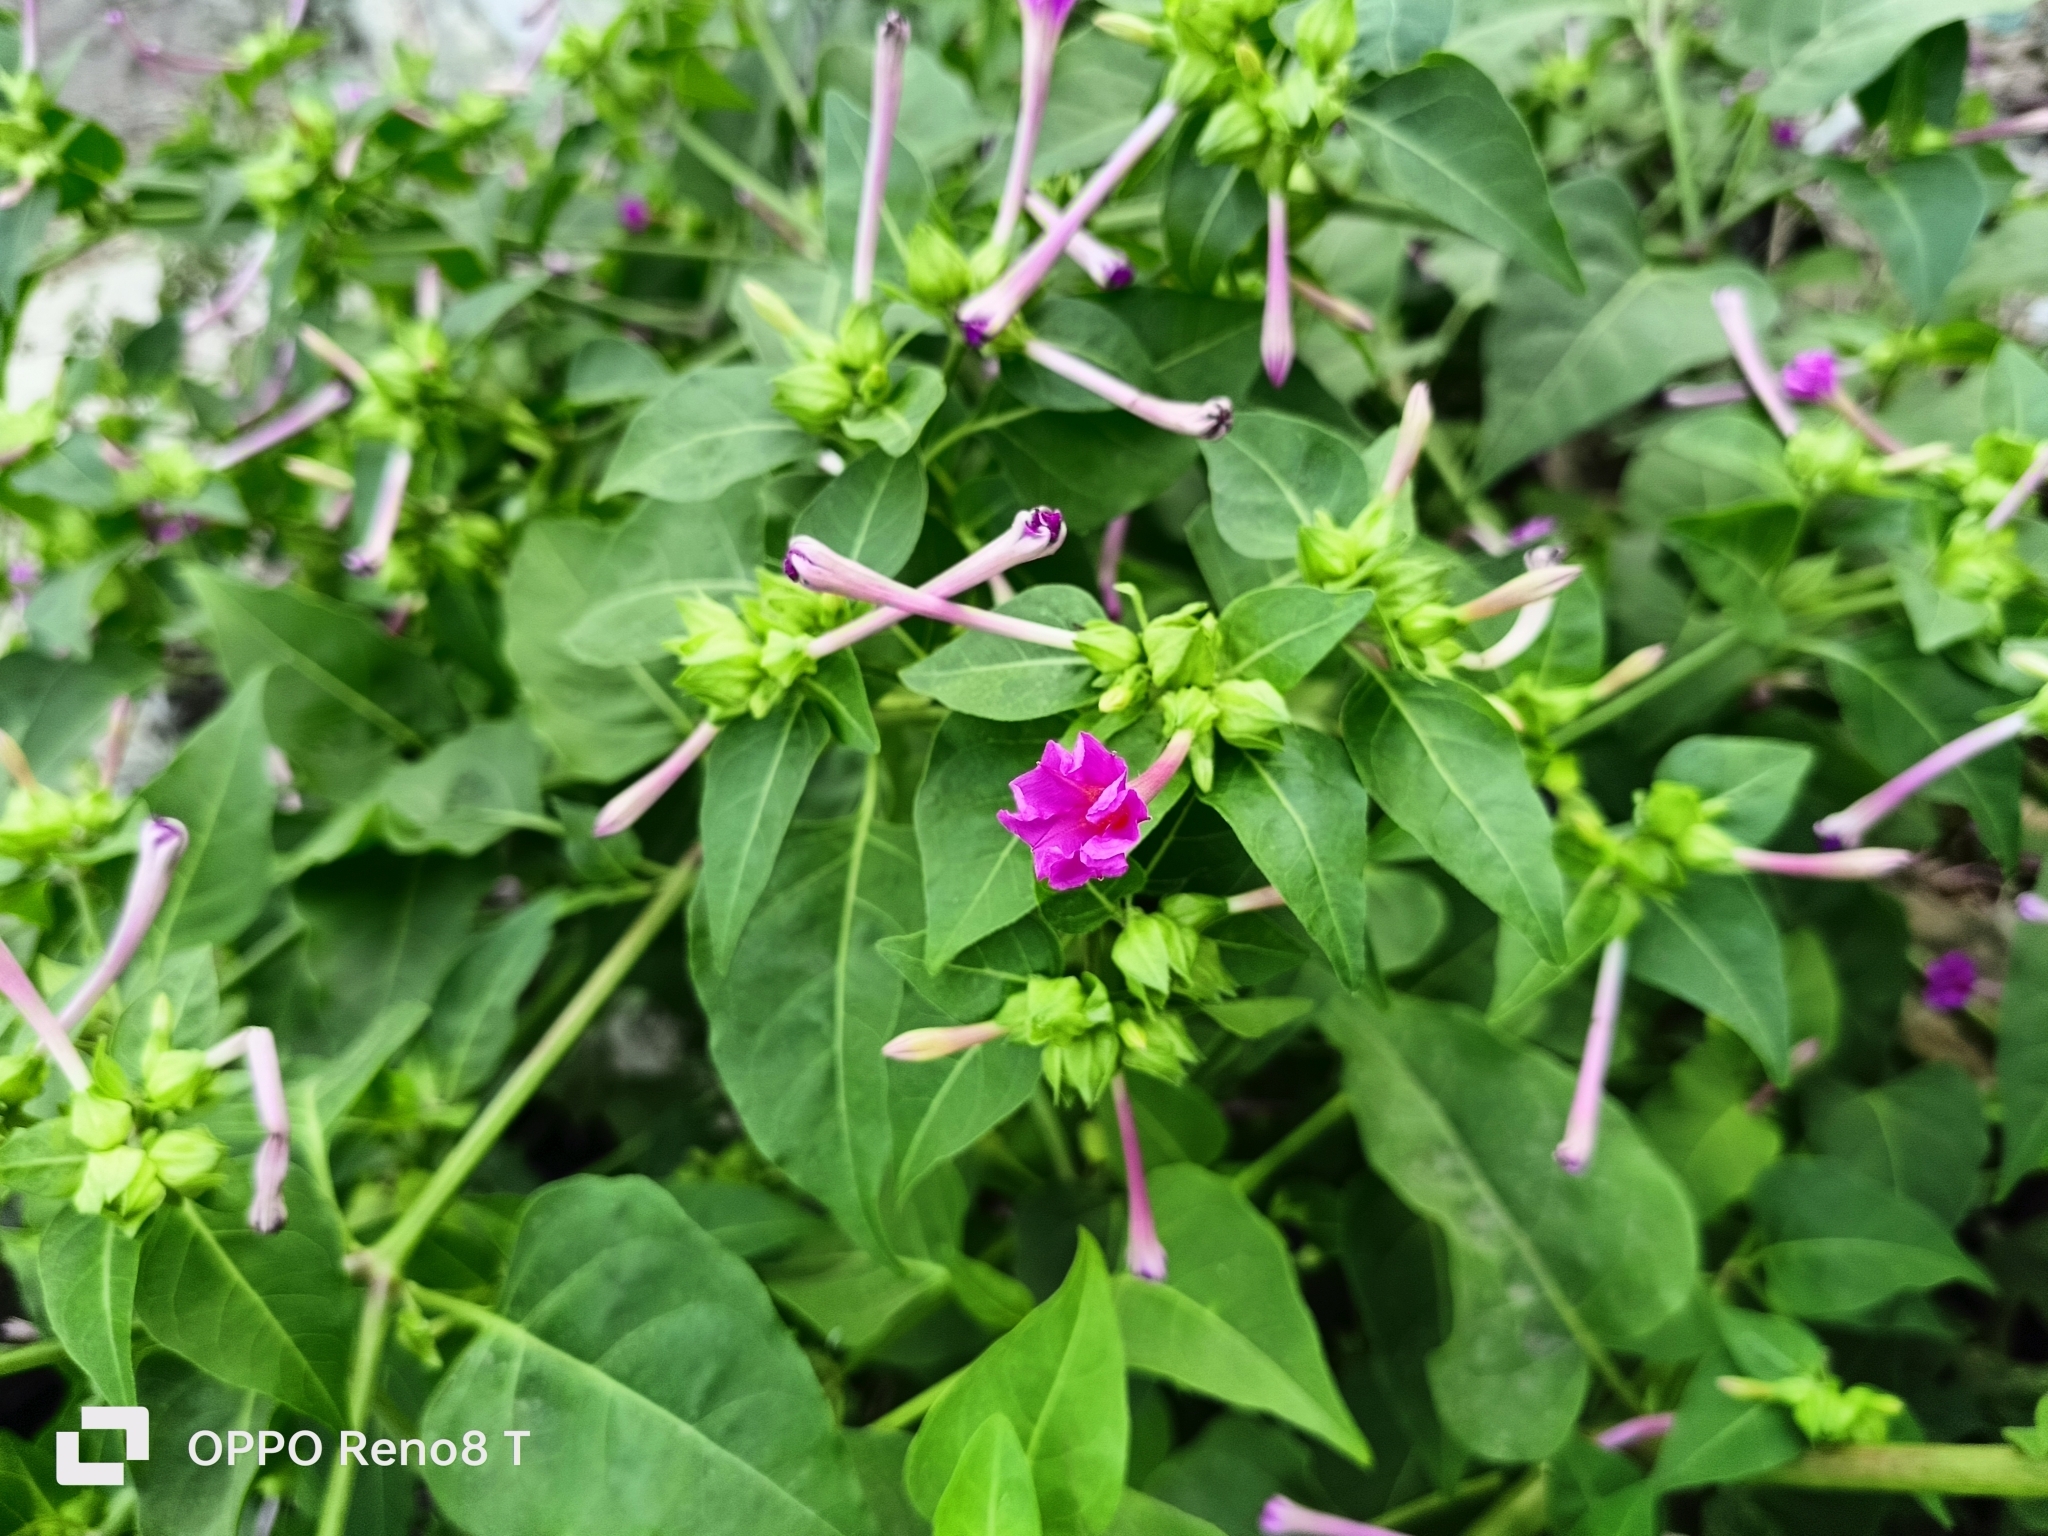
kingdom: Plantae
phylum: Tracheophyta
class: Magnoliopsida
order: Caryophyllales
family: Nyctaginaceae
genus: Mirabilis
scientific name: Mirabilis jalapa
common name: Marvel-of-peru
